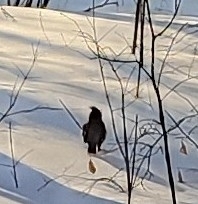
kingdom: Animalia
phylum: Chordata
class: Aves
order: Passeriformes
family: Bombycillidae
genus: Bombycilla
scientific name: Bombycilla garrulus
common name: Bohemian waxwing
